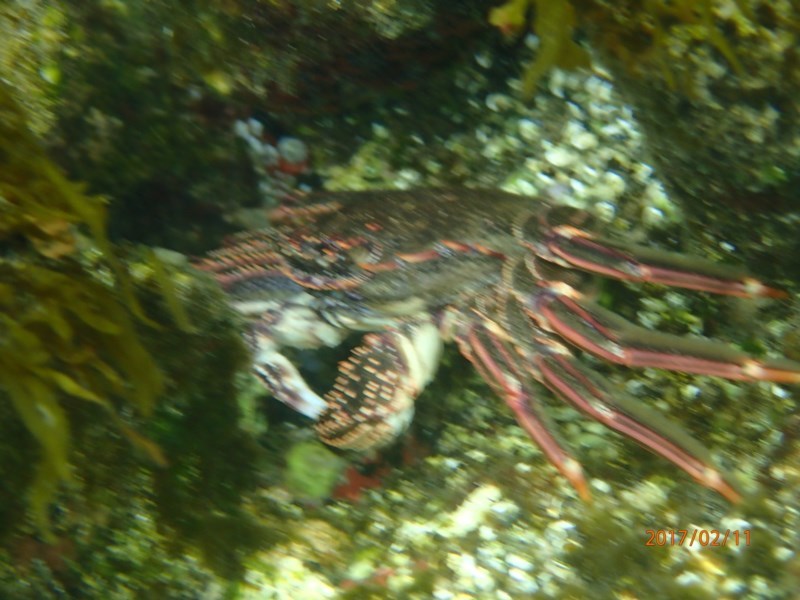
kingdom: Animalia
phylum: Arthropoda
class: Malacostraca
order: Decapoda
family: Plagusiidae
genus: Guinusia
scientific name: Guinusia chabrus
